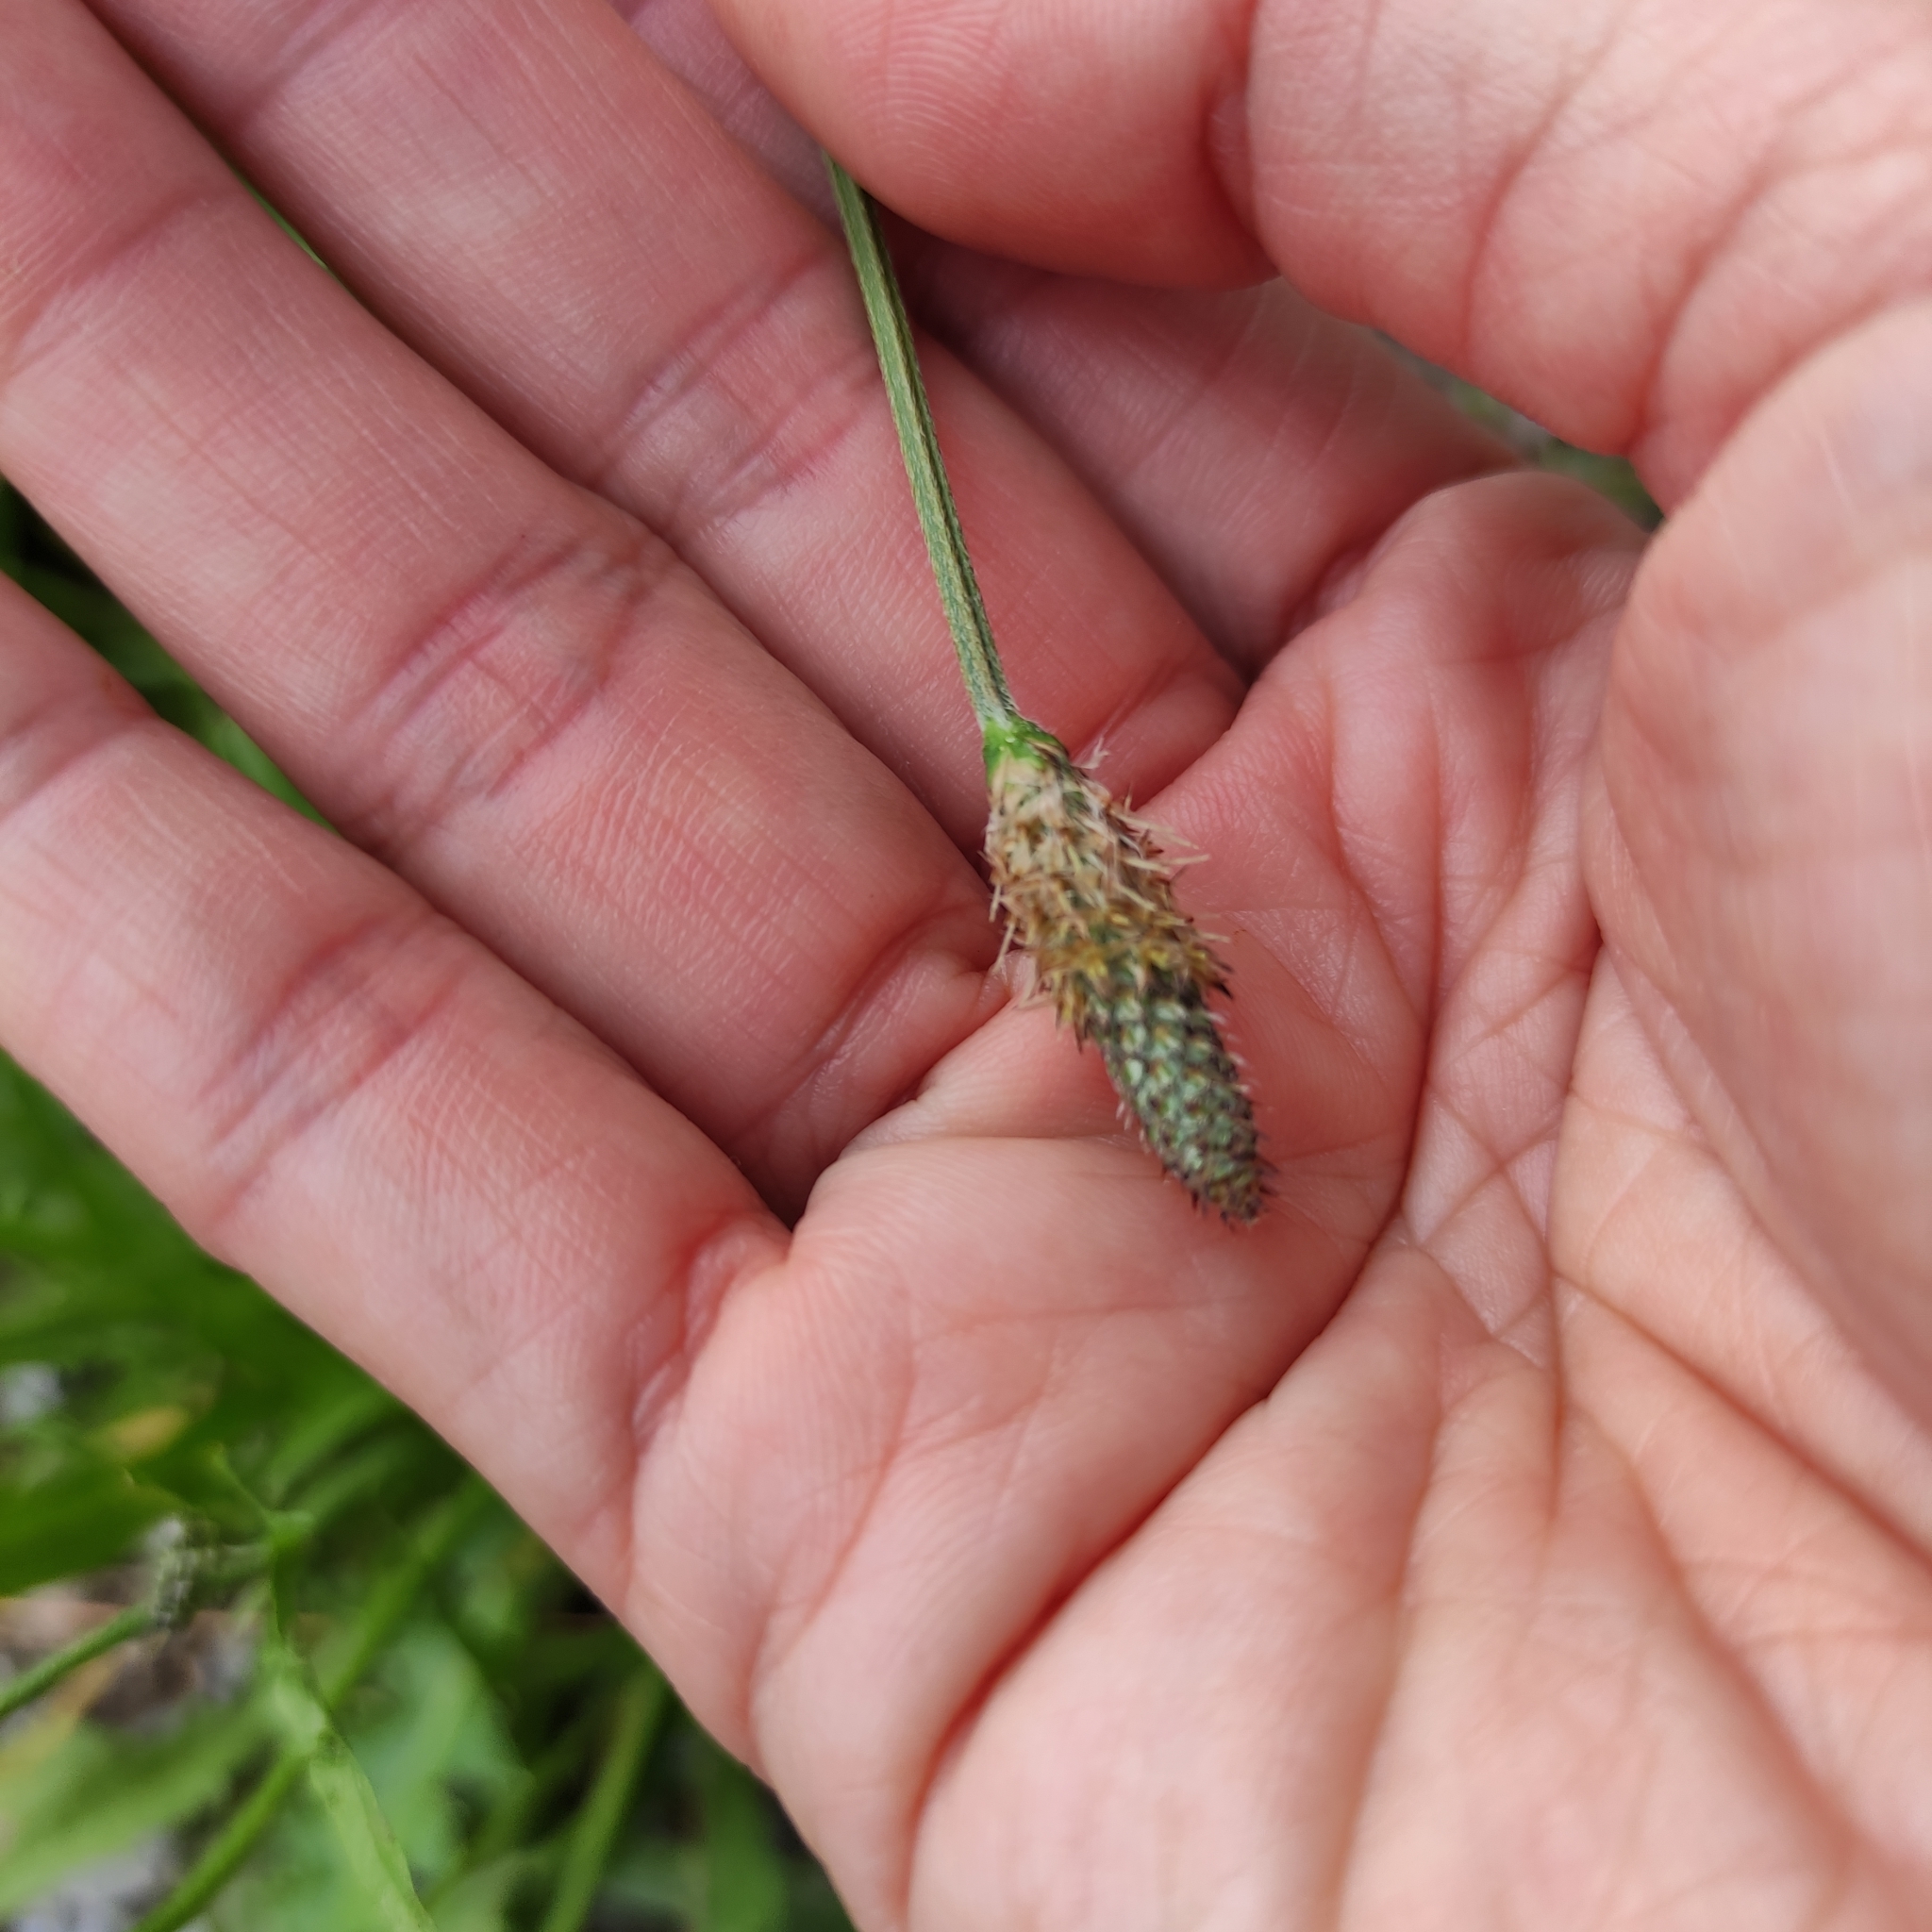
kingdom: Plantae
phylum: Tracheophyta
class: Magnoliopsida
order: Lamiales
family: Plantaginaceae
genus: Plantago
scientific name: Plantago lanceolata
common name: Ribwort plantain
